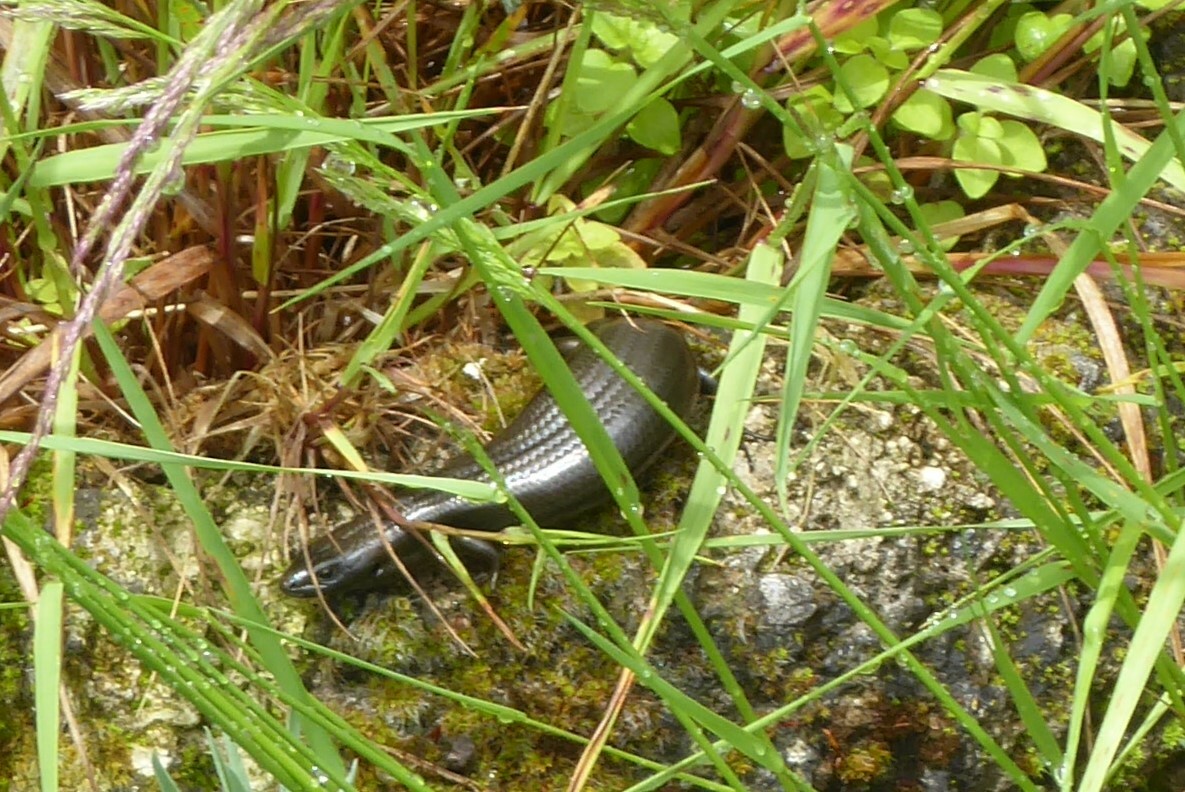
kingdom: Animalia
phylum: Chordata
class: Squamata
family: Scincidae
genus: Oligosoma
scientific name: Oligosoma polychroma
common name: Common new zealand skink
